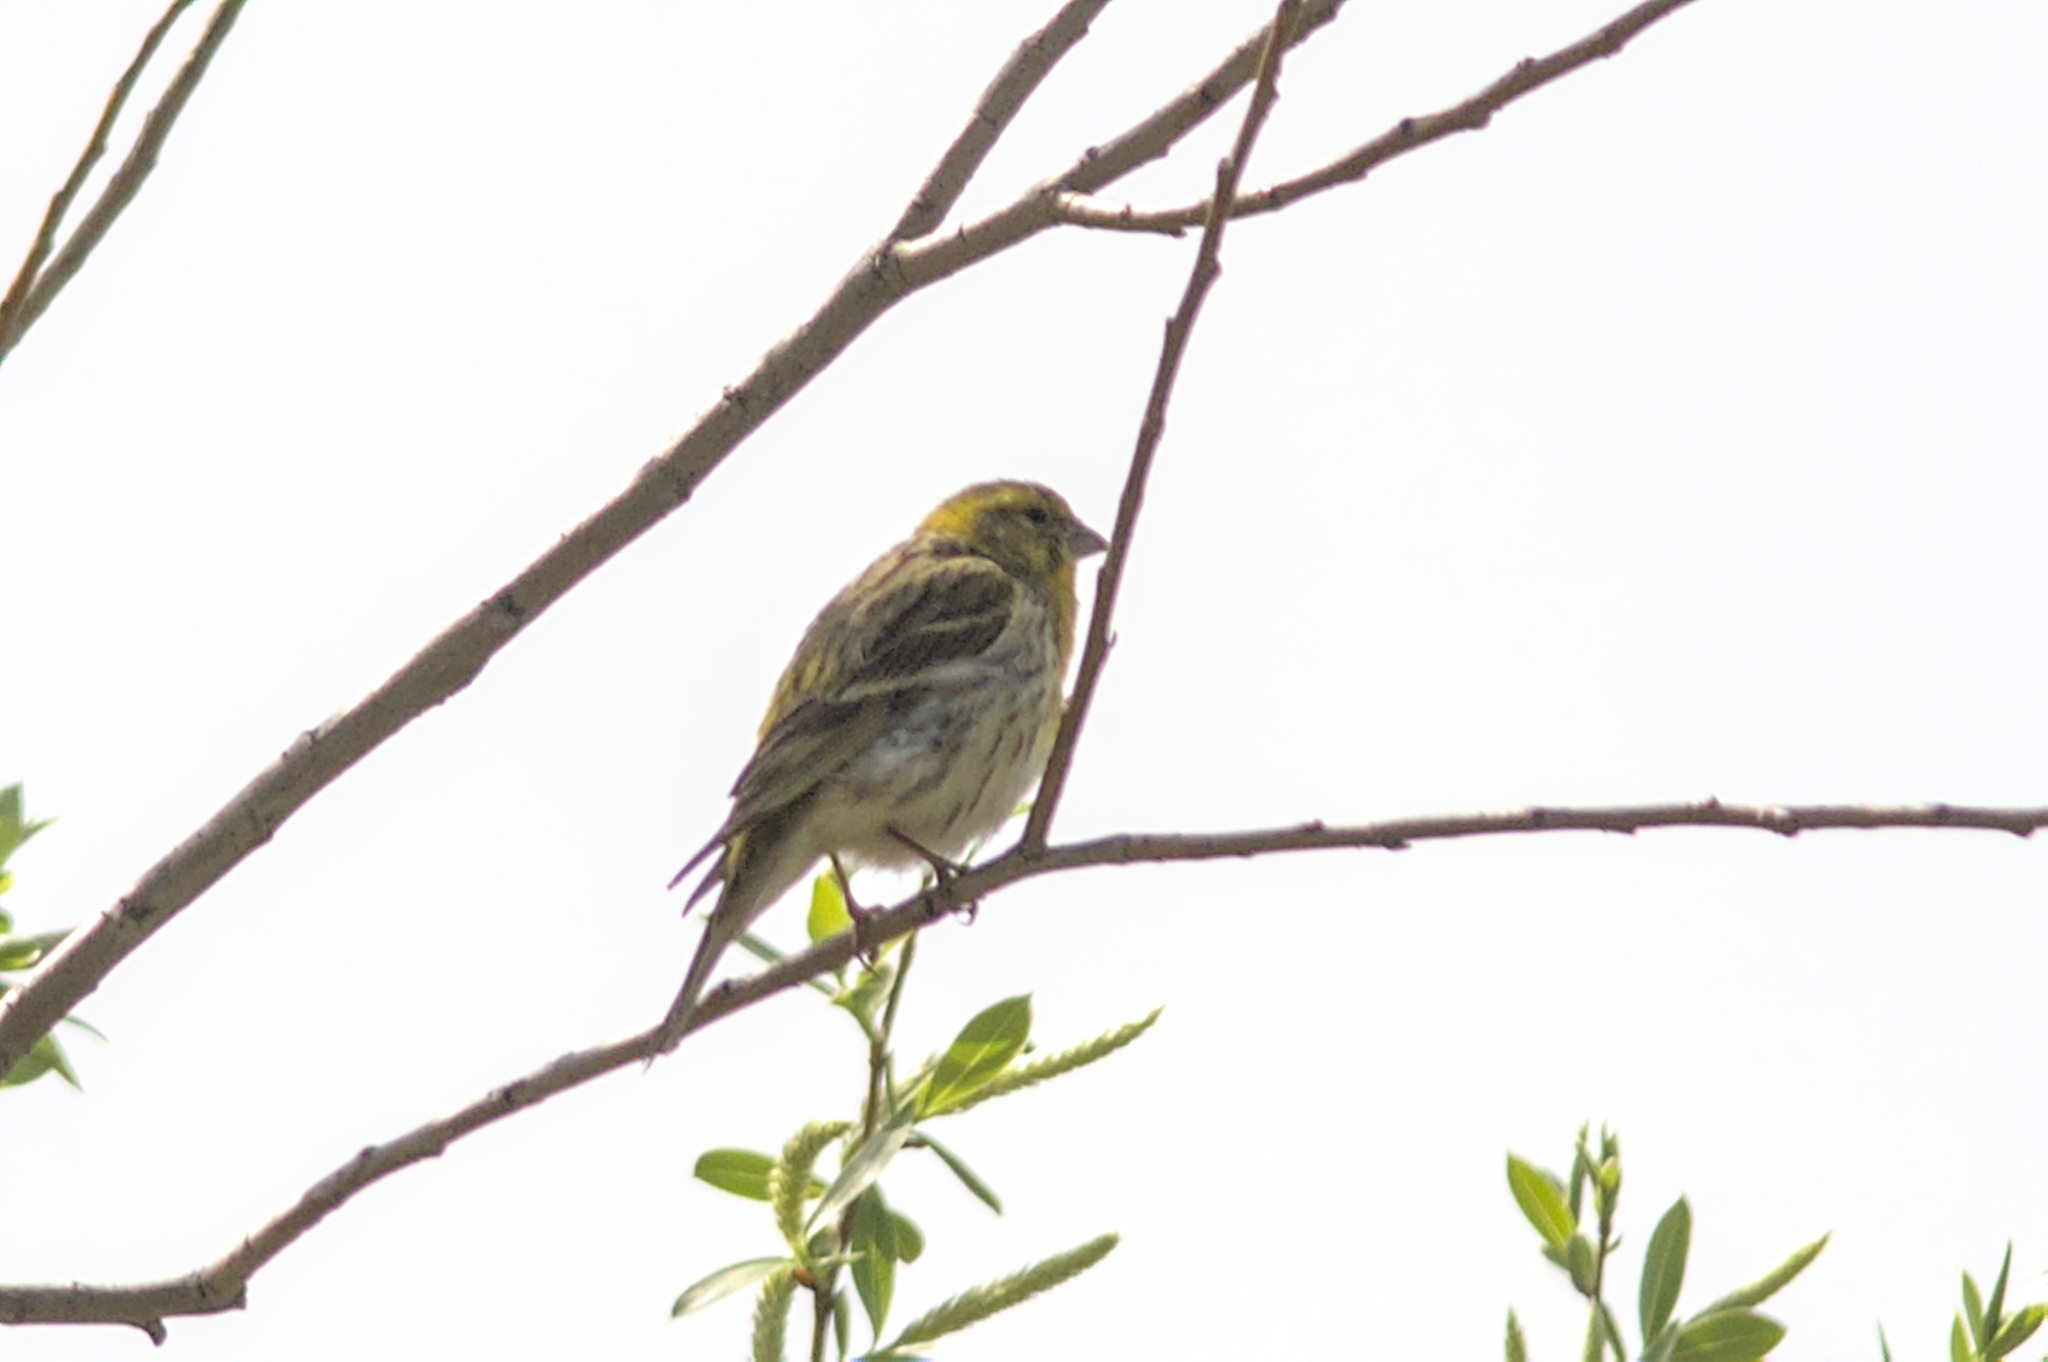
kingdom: Animalia
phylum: Chordata
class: Aves
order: Passeriformes
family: Fringillidae
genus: Serinus
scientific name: Serinus serinus
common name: European serin
